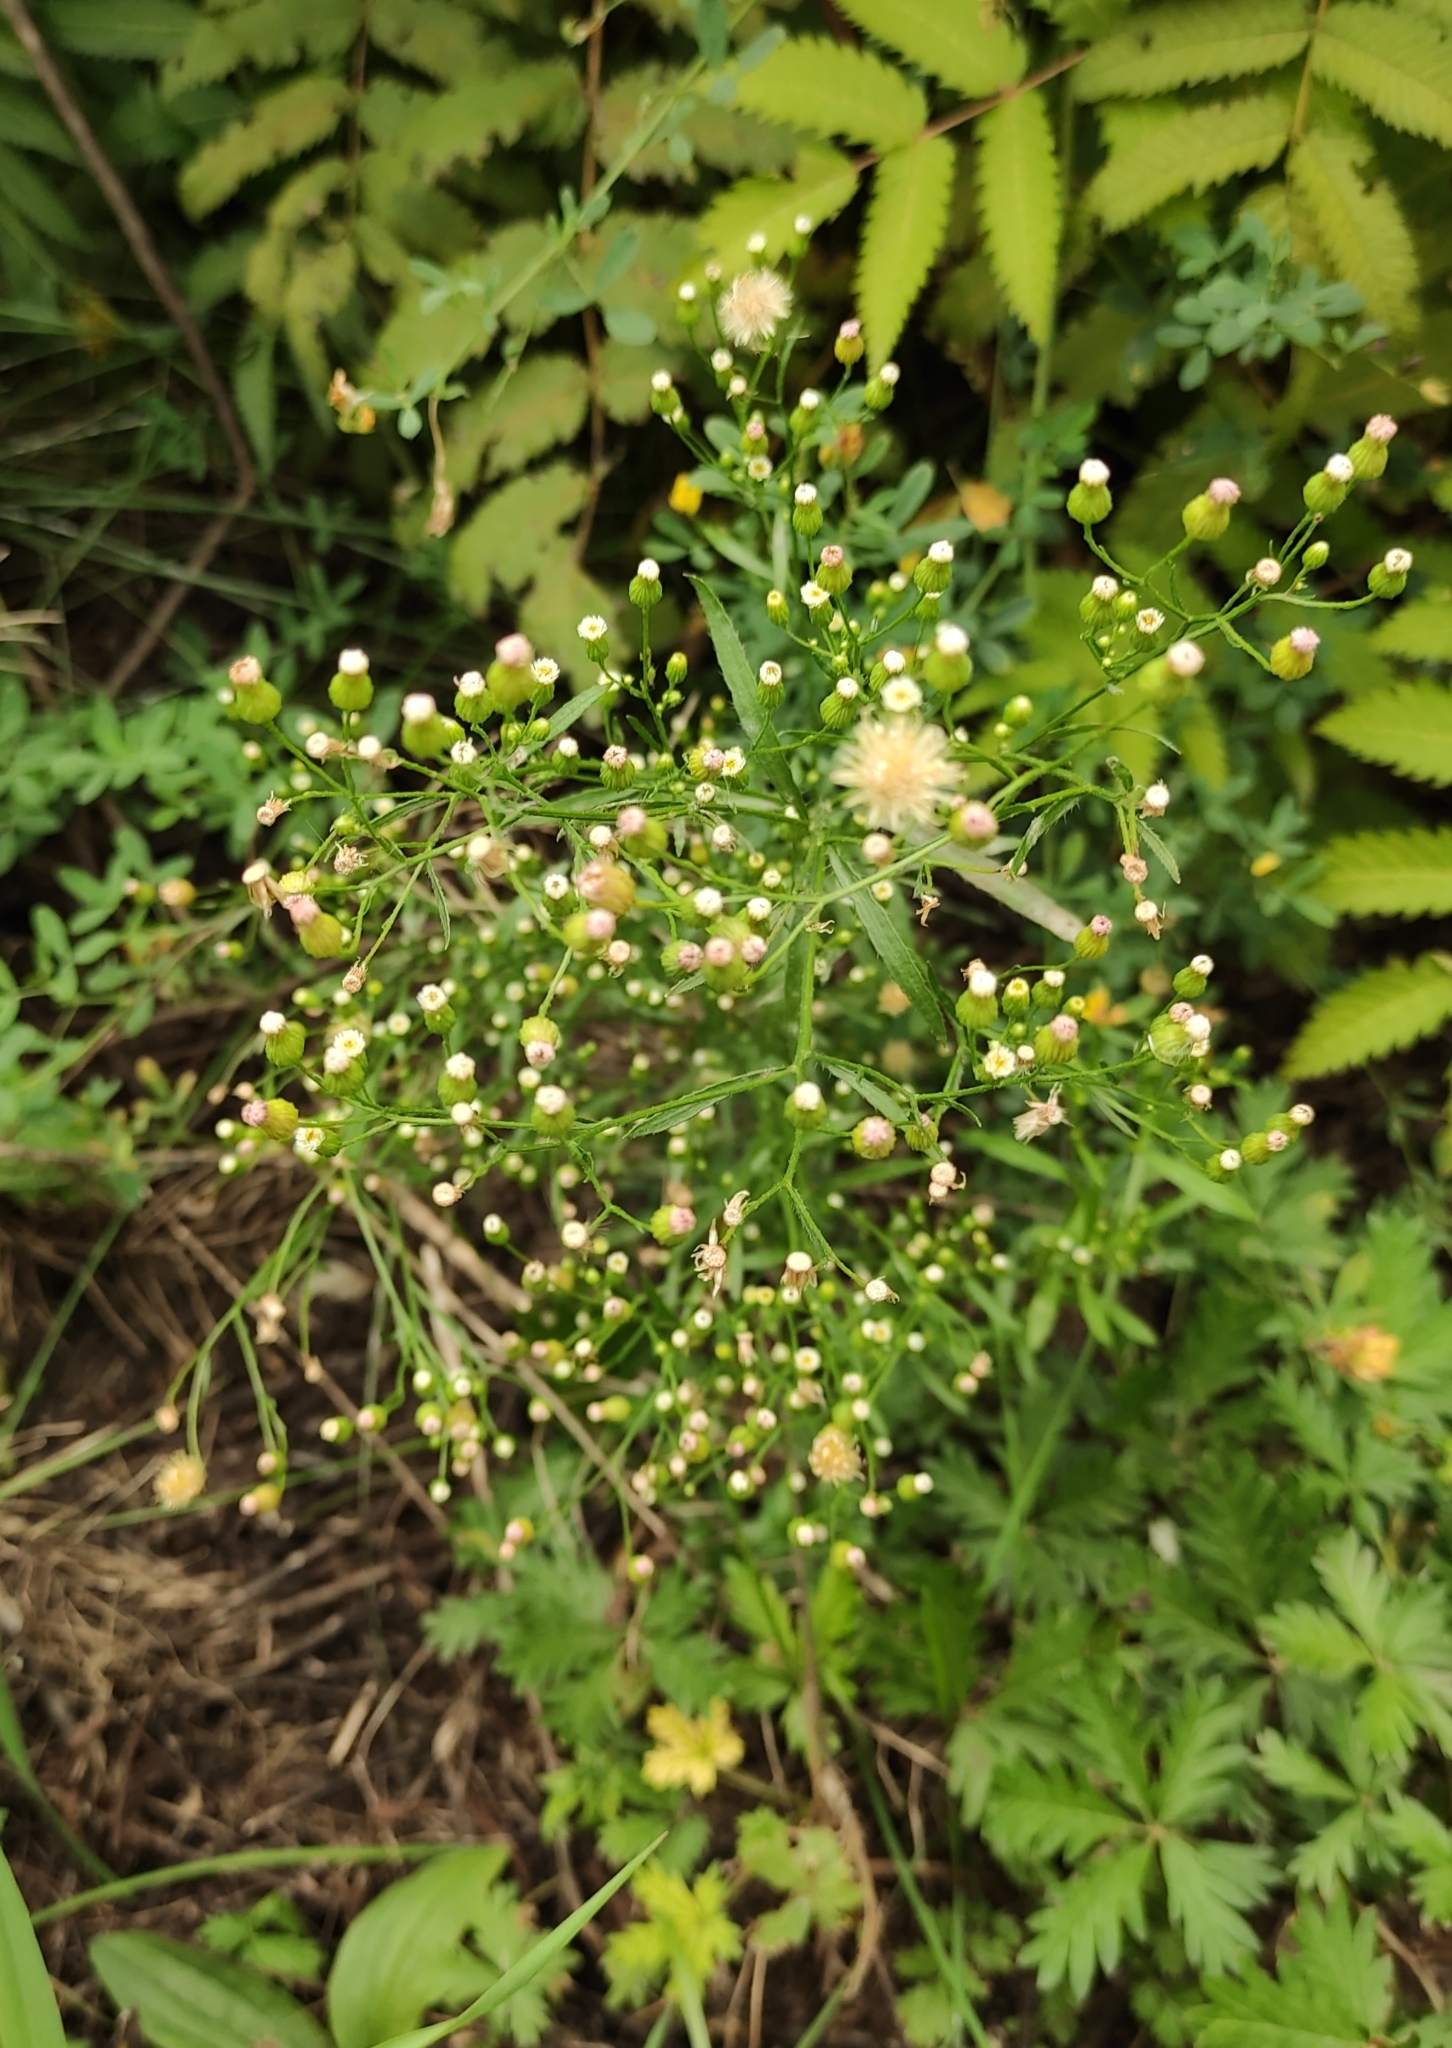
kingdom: Plantae
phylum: Tracheophyta
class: Magnoliopsida
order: Asterales
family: Asteraceae
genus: Erigeron
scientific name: Erigeron canadensis
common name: Canadian fleabane
